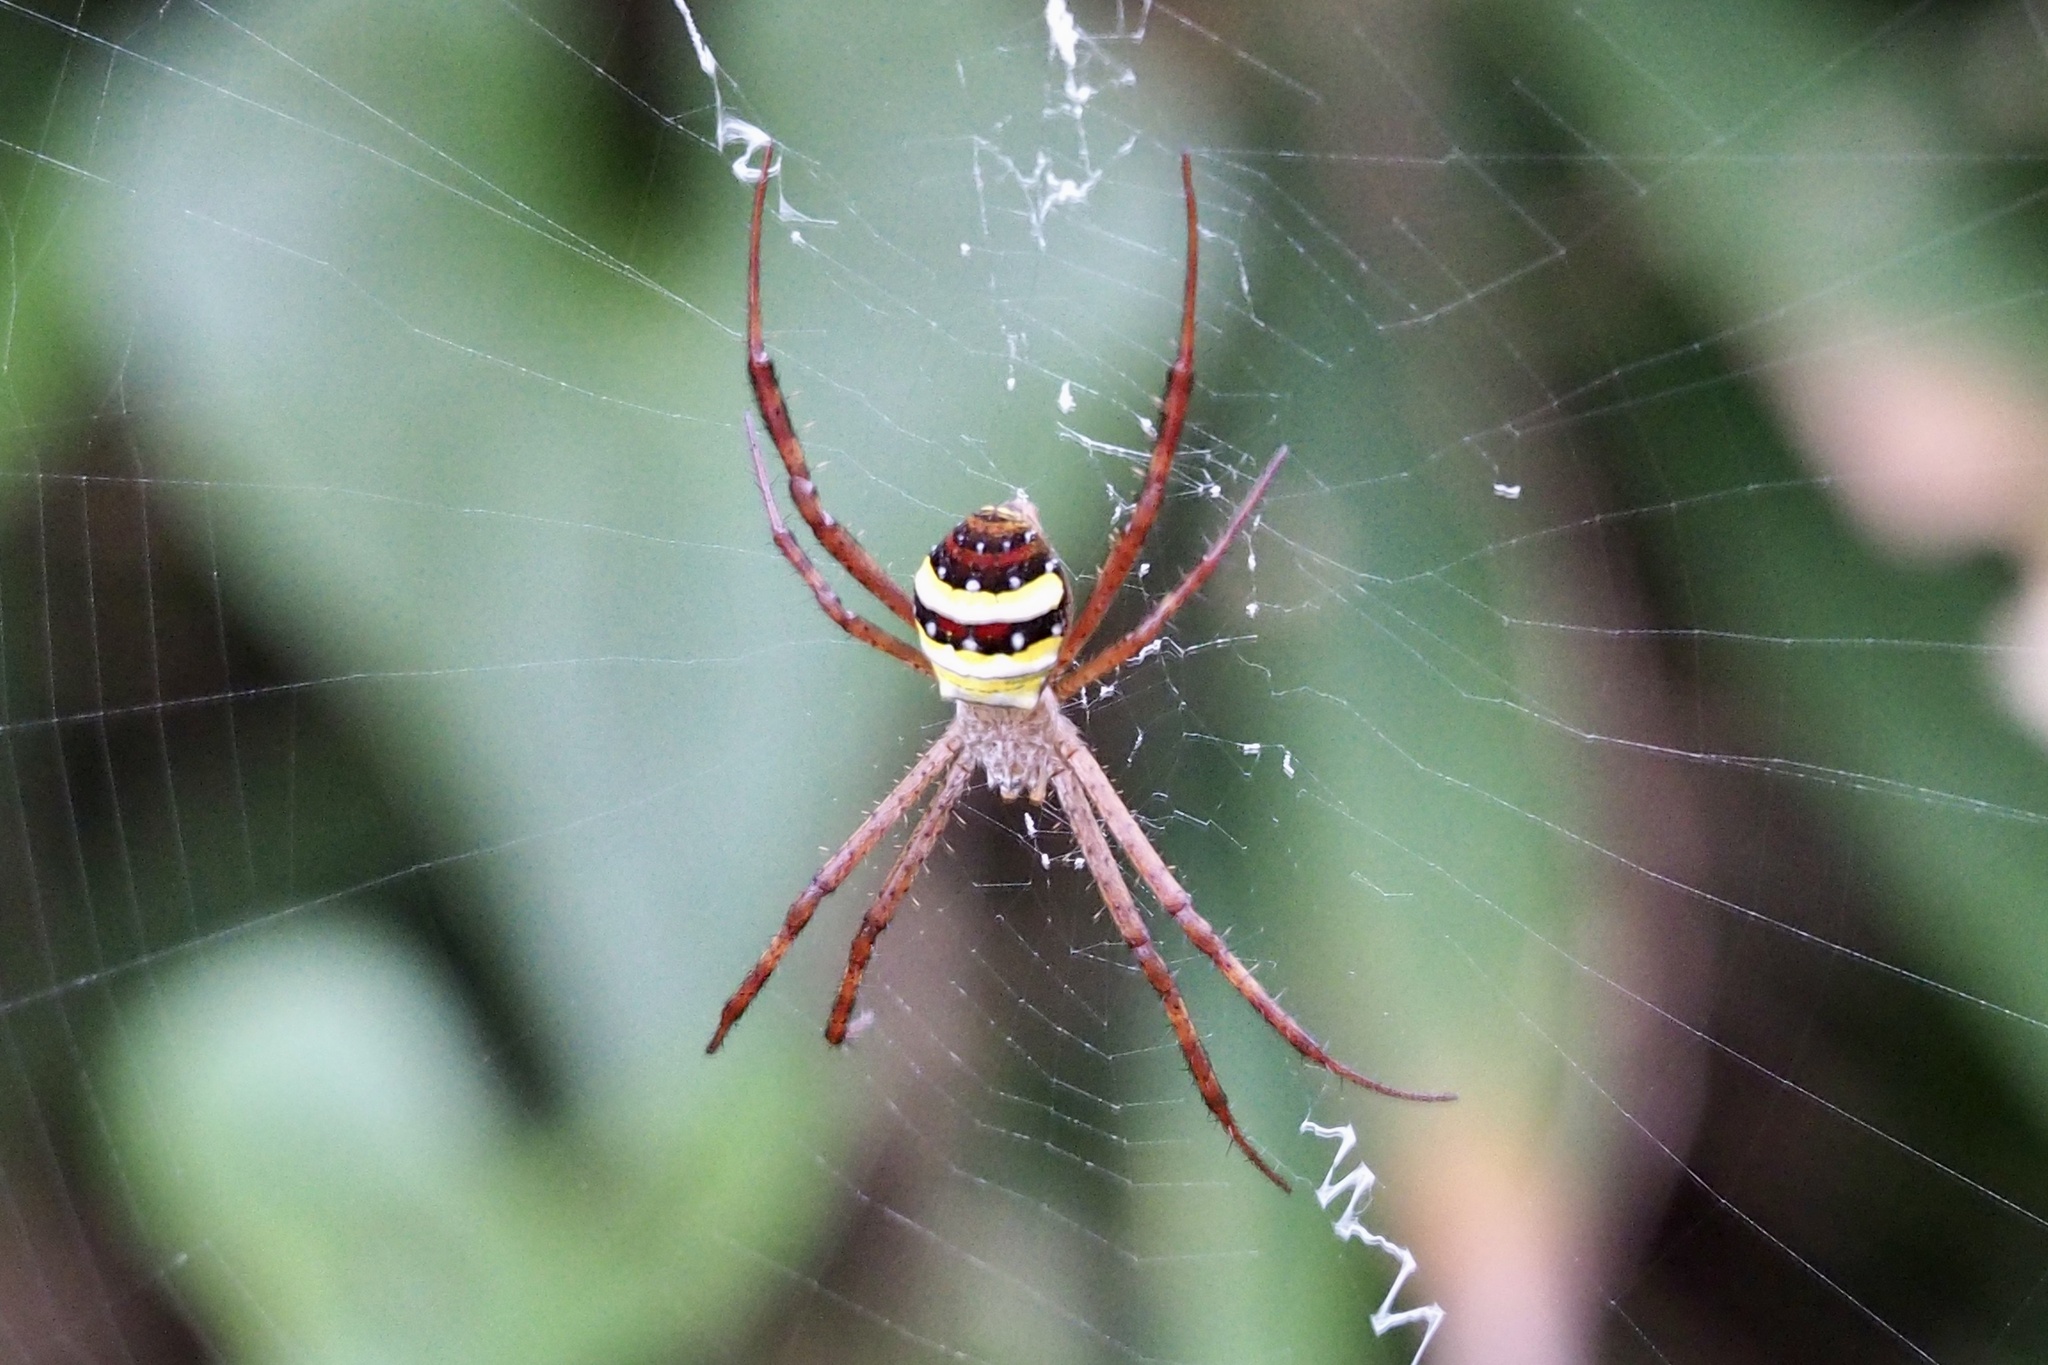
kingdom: Animalia
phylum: Arthropoda
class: Arachnida
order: Araneae
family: Araneidae
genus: Argiope
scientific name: Argiope minuta
